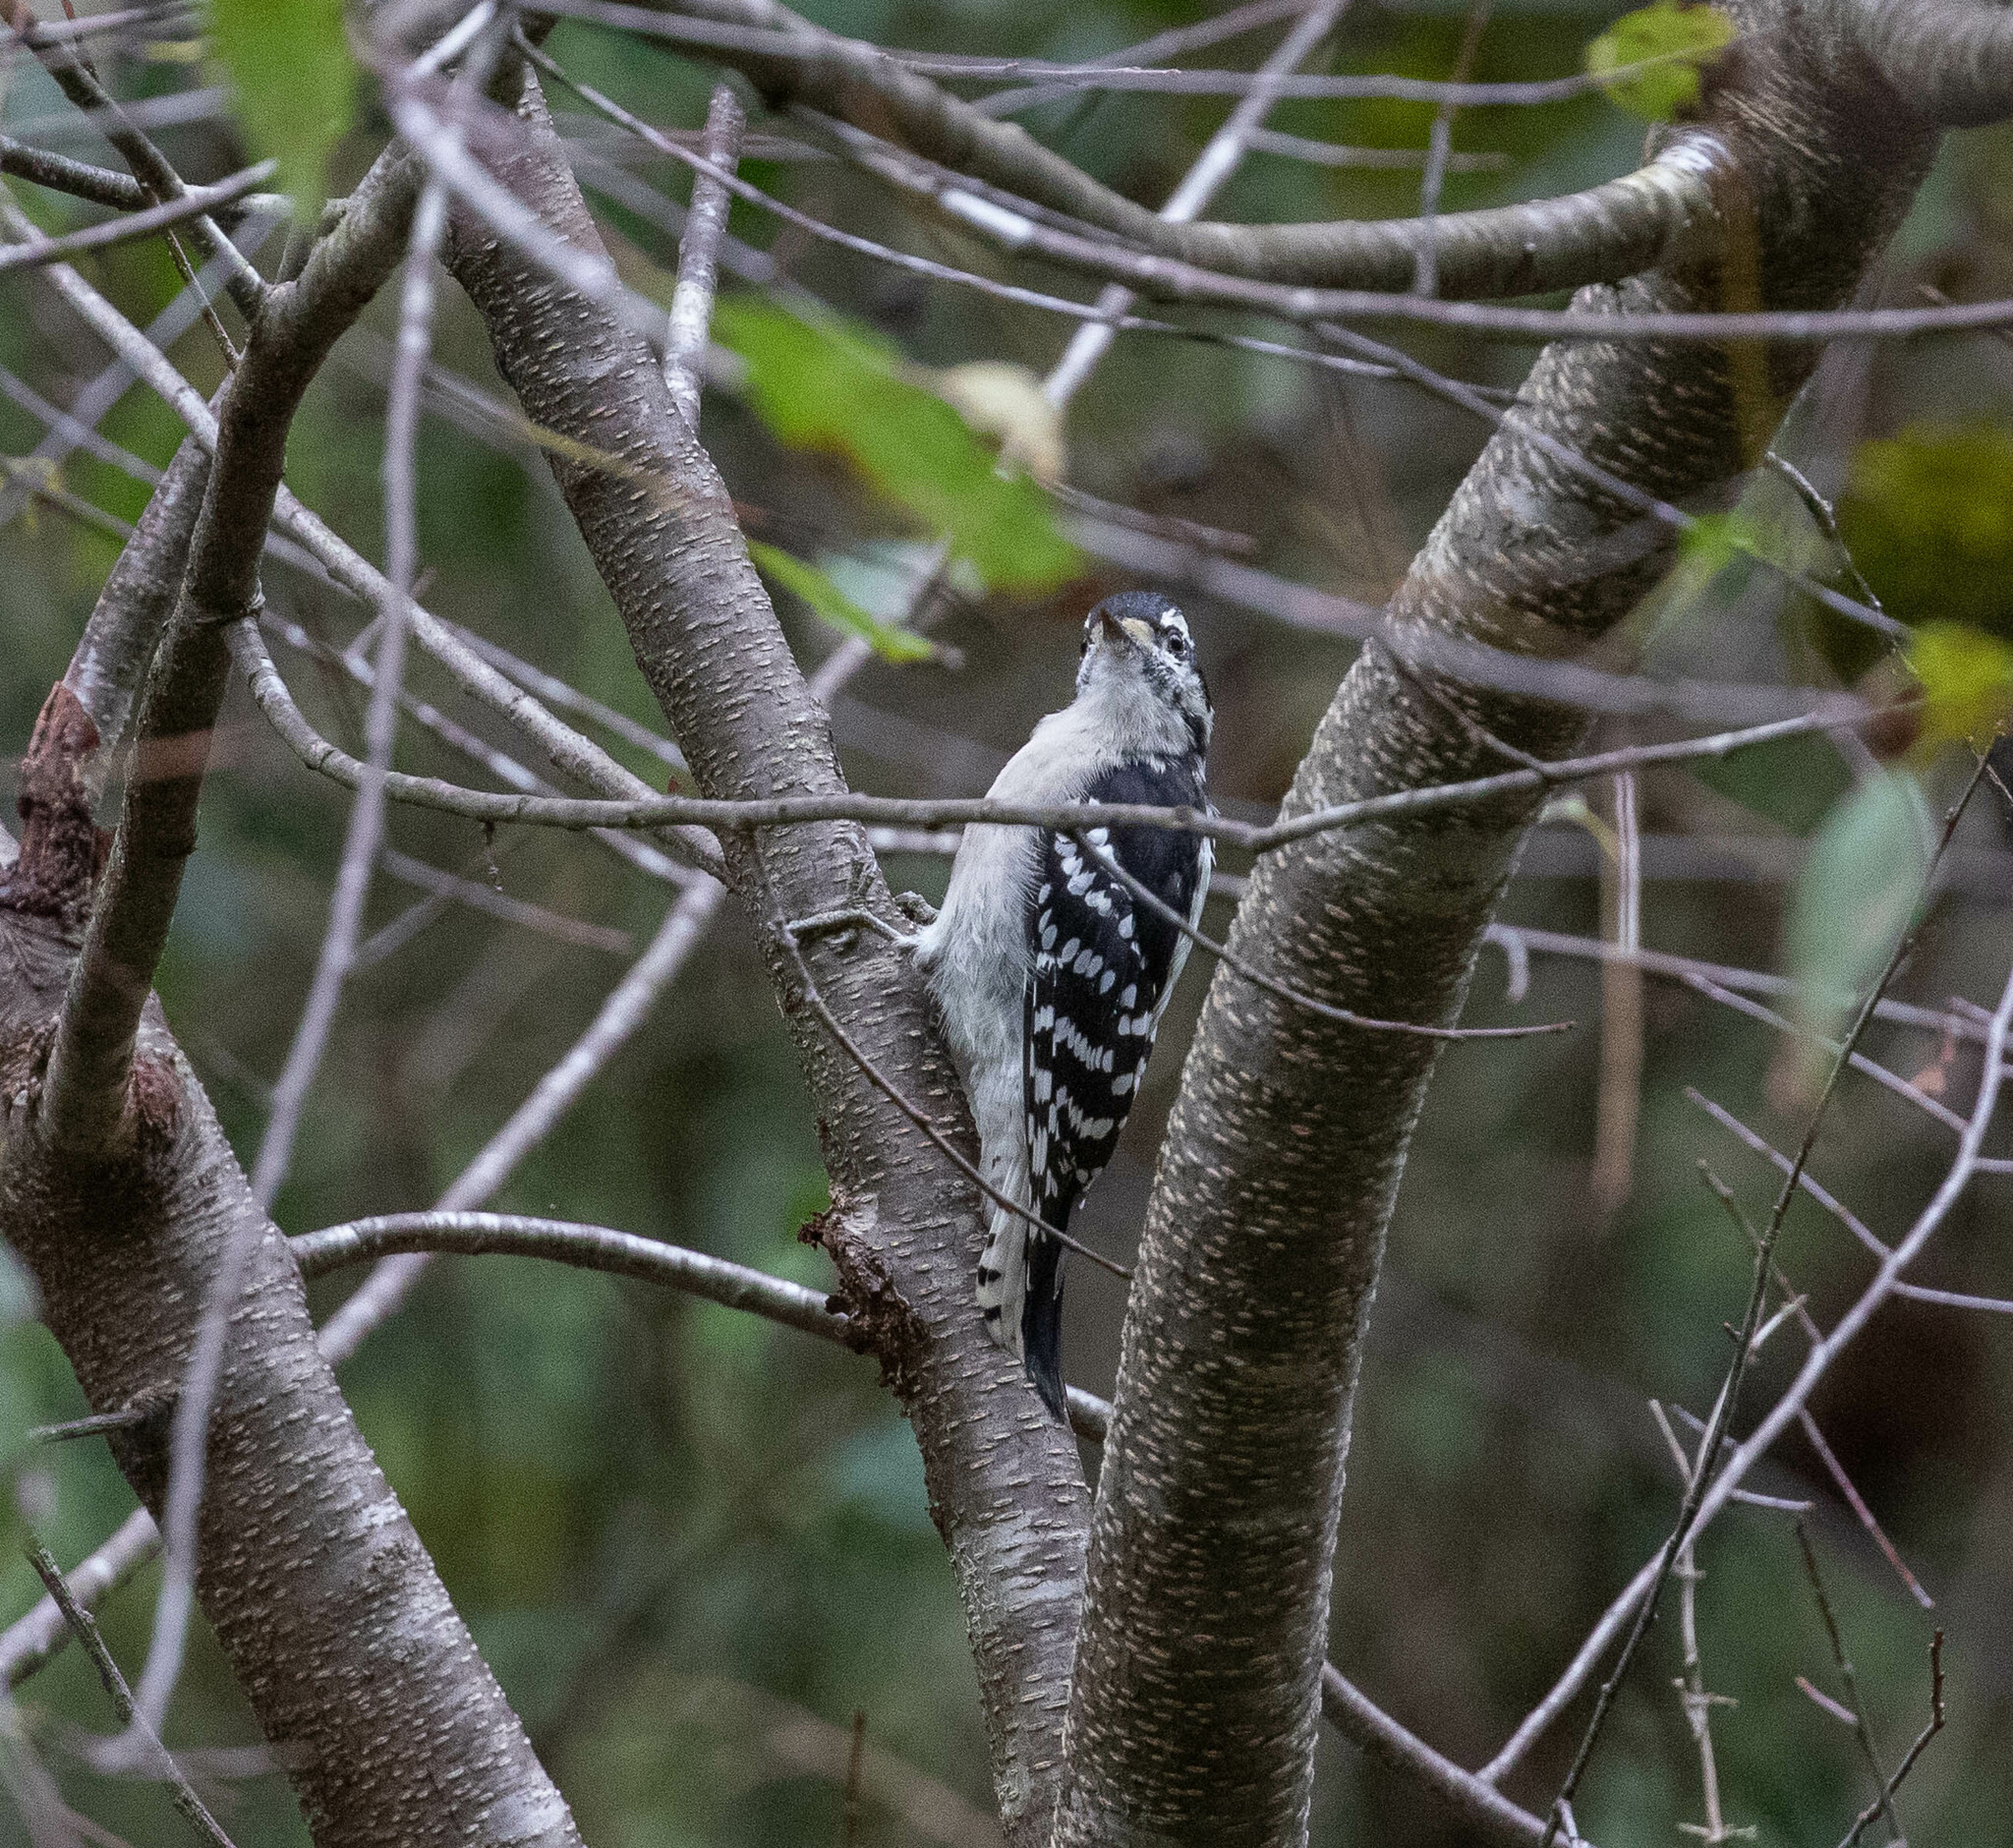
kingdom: Animalia
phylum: Chordata
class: Aves
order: Piciformes
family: Picidae
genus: Dryobates
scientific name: Dryobates pubescens
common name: Downy woodpecker
